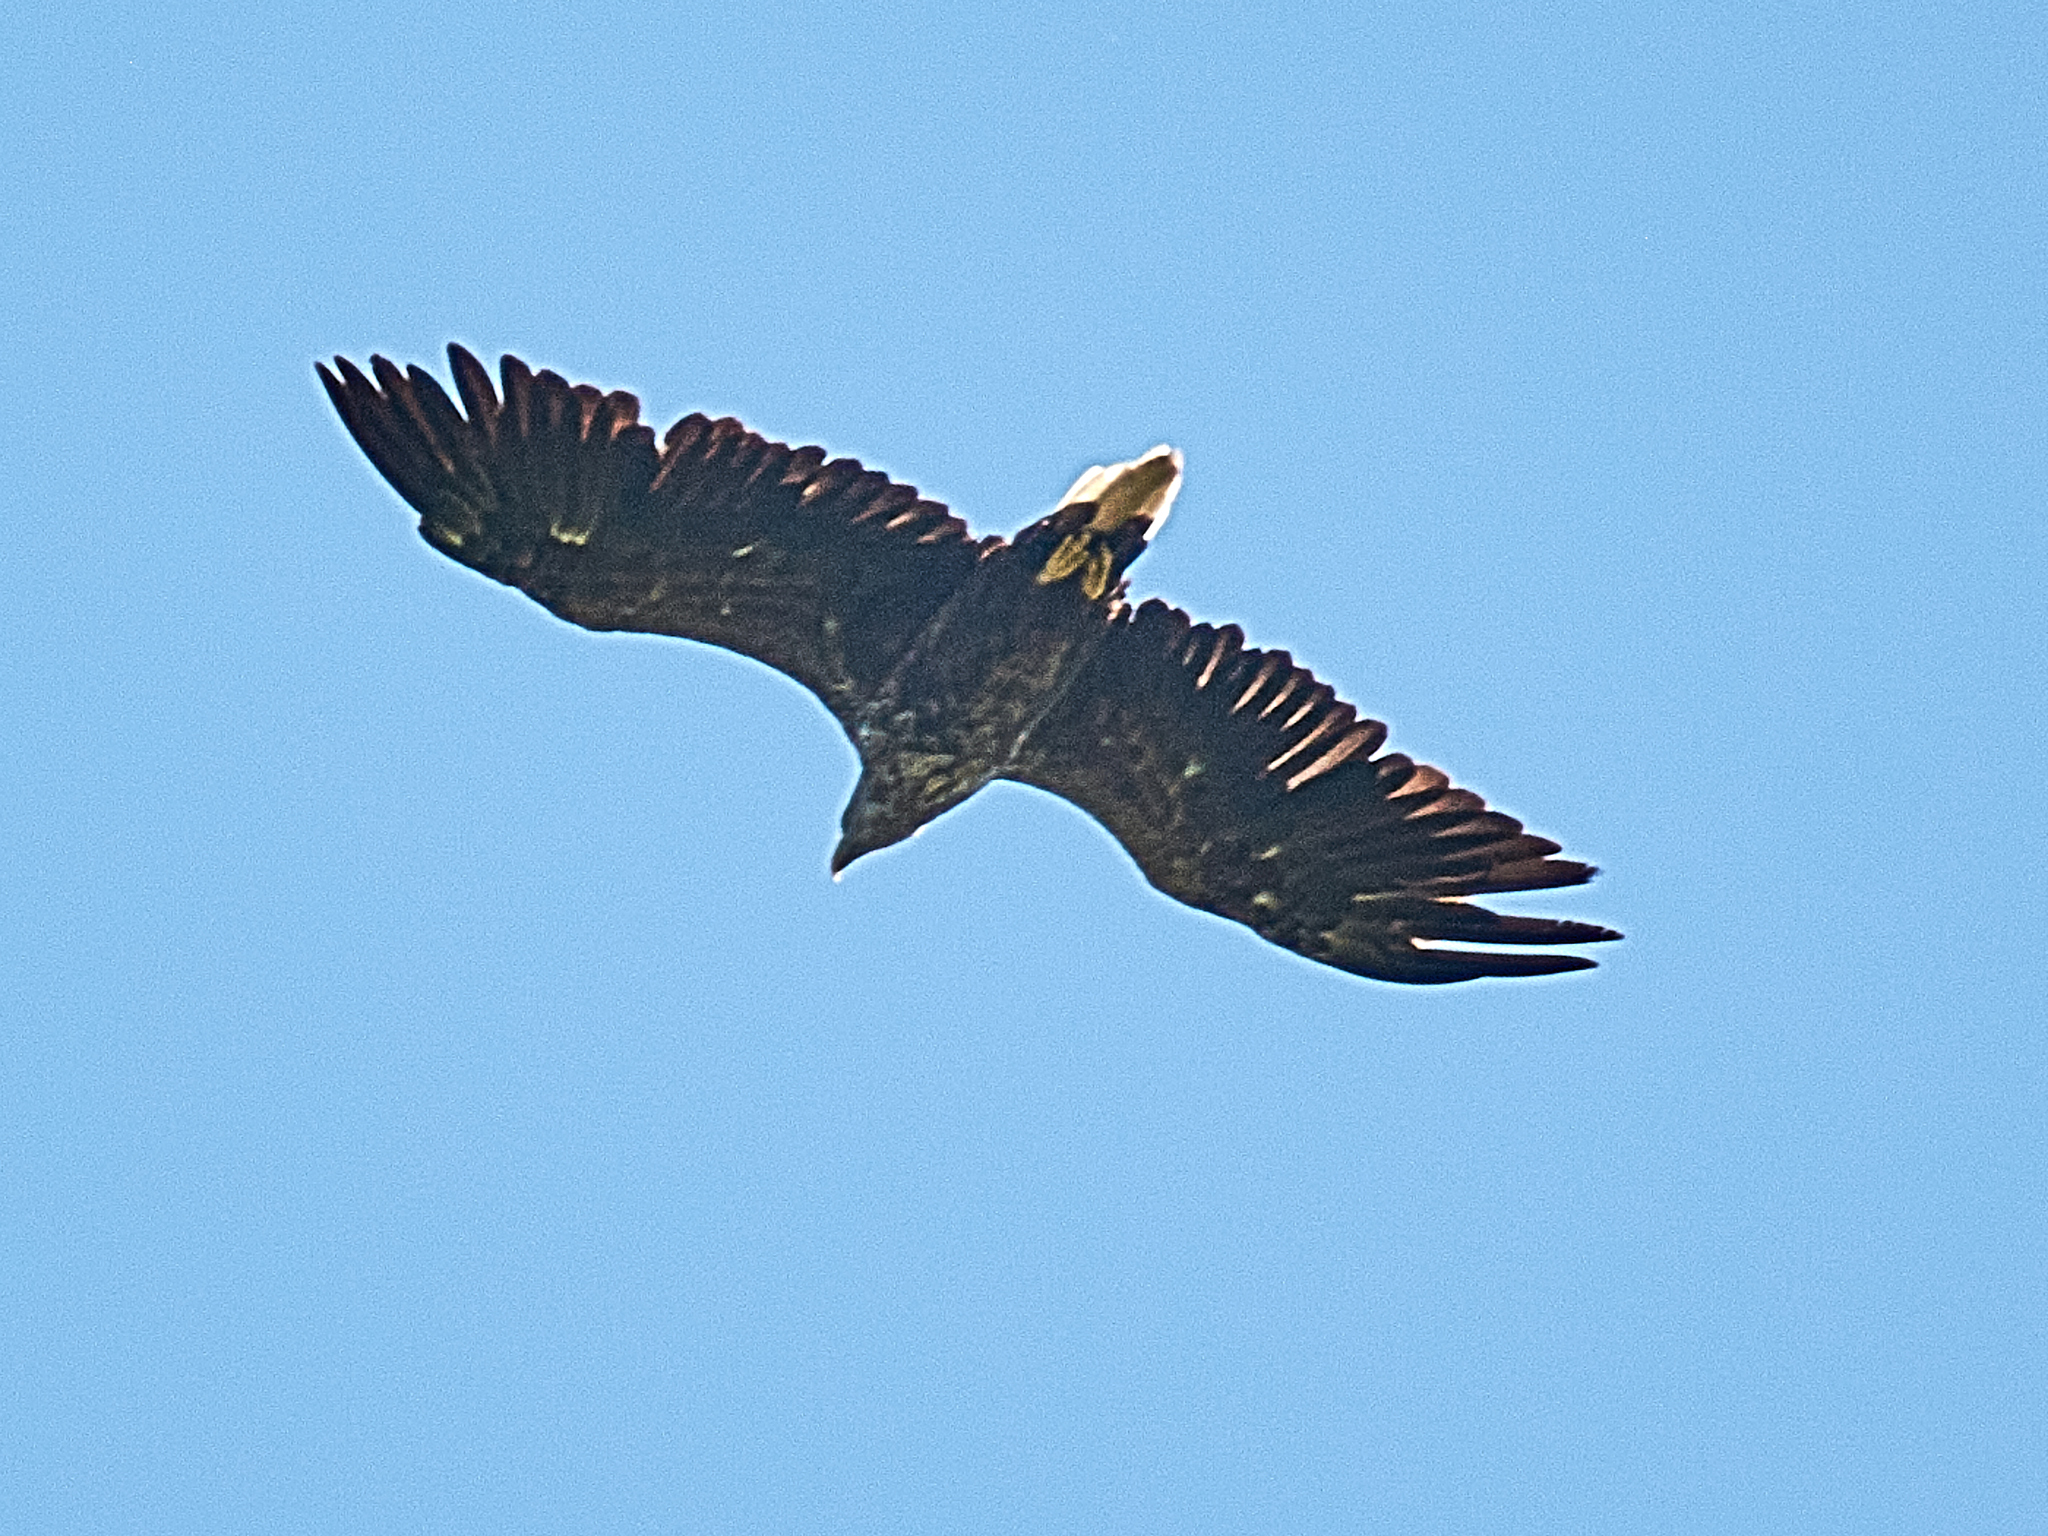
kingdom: Animalia
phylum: Chordata
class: Aves
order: Accipitriformes
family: Accipitridae
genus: Haliaeetus
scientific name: Haliaeetus albicilla
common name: White-tailed eagle
